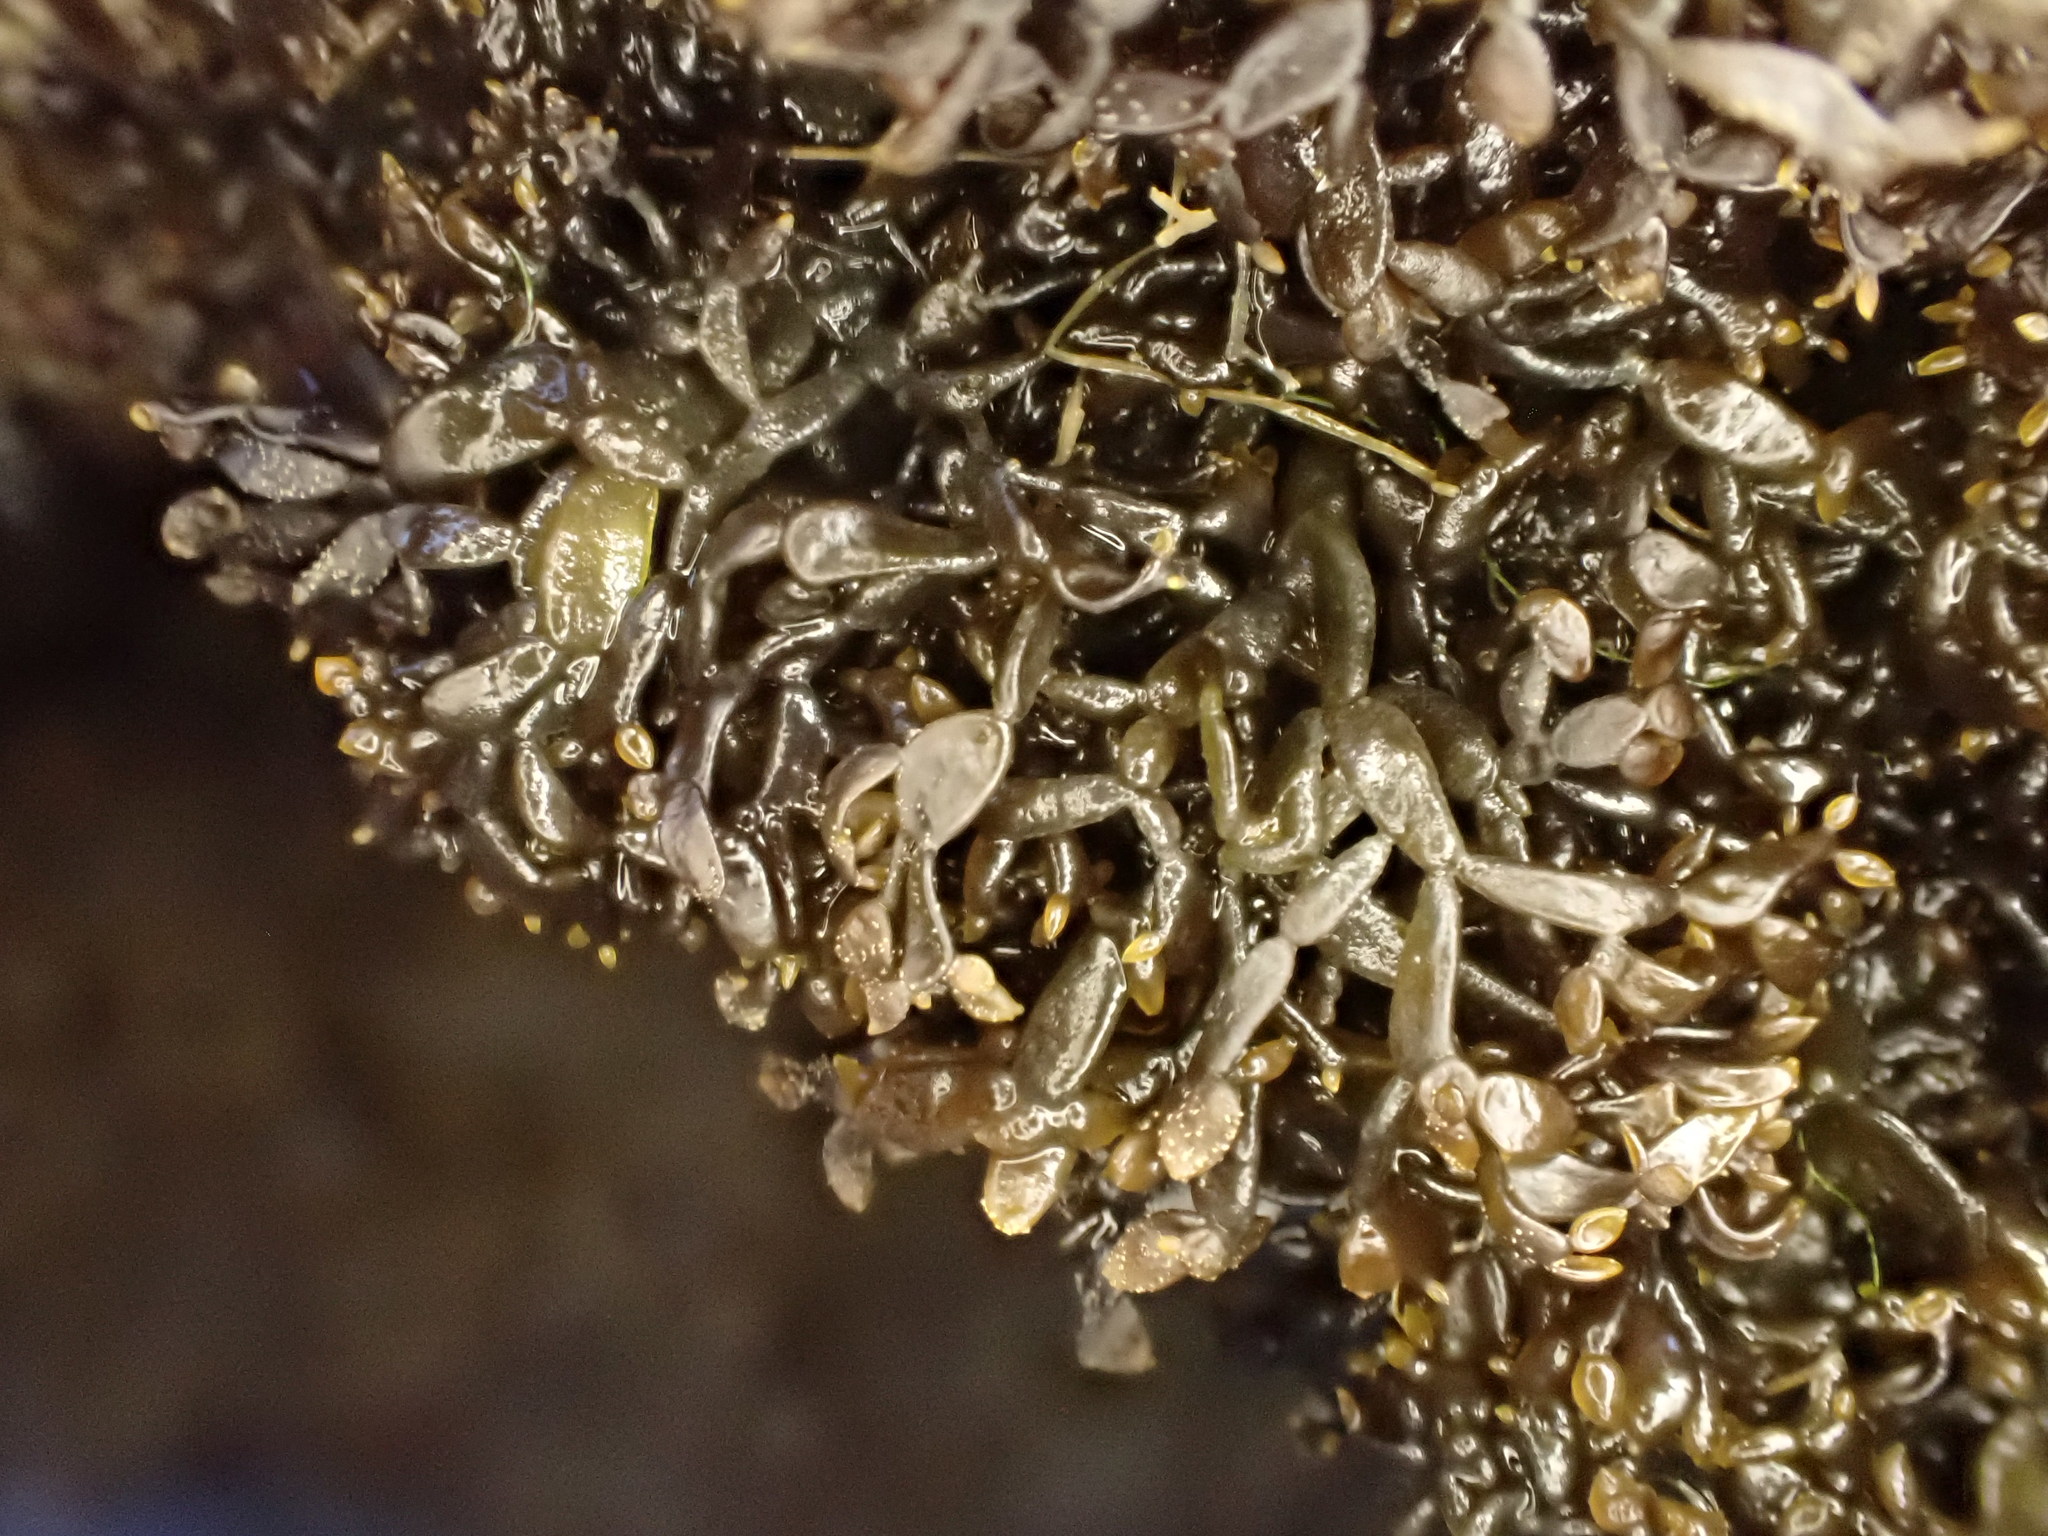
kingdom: Plantae
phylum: Rhodophyta
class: Florideophyceae
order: Gigartinales
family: Caulacanthaceae
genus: Catenella
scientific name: Catenella nipae
